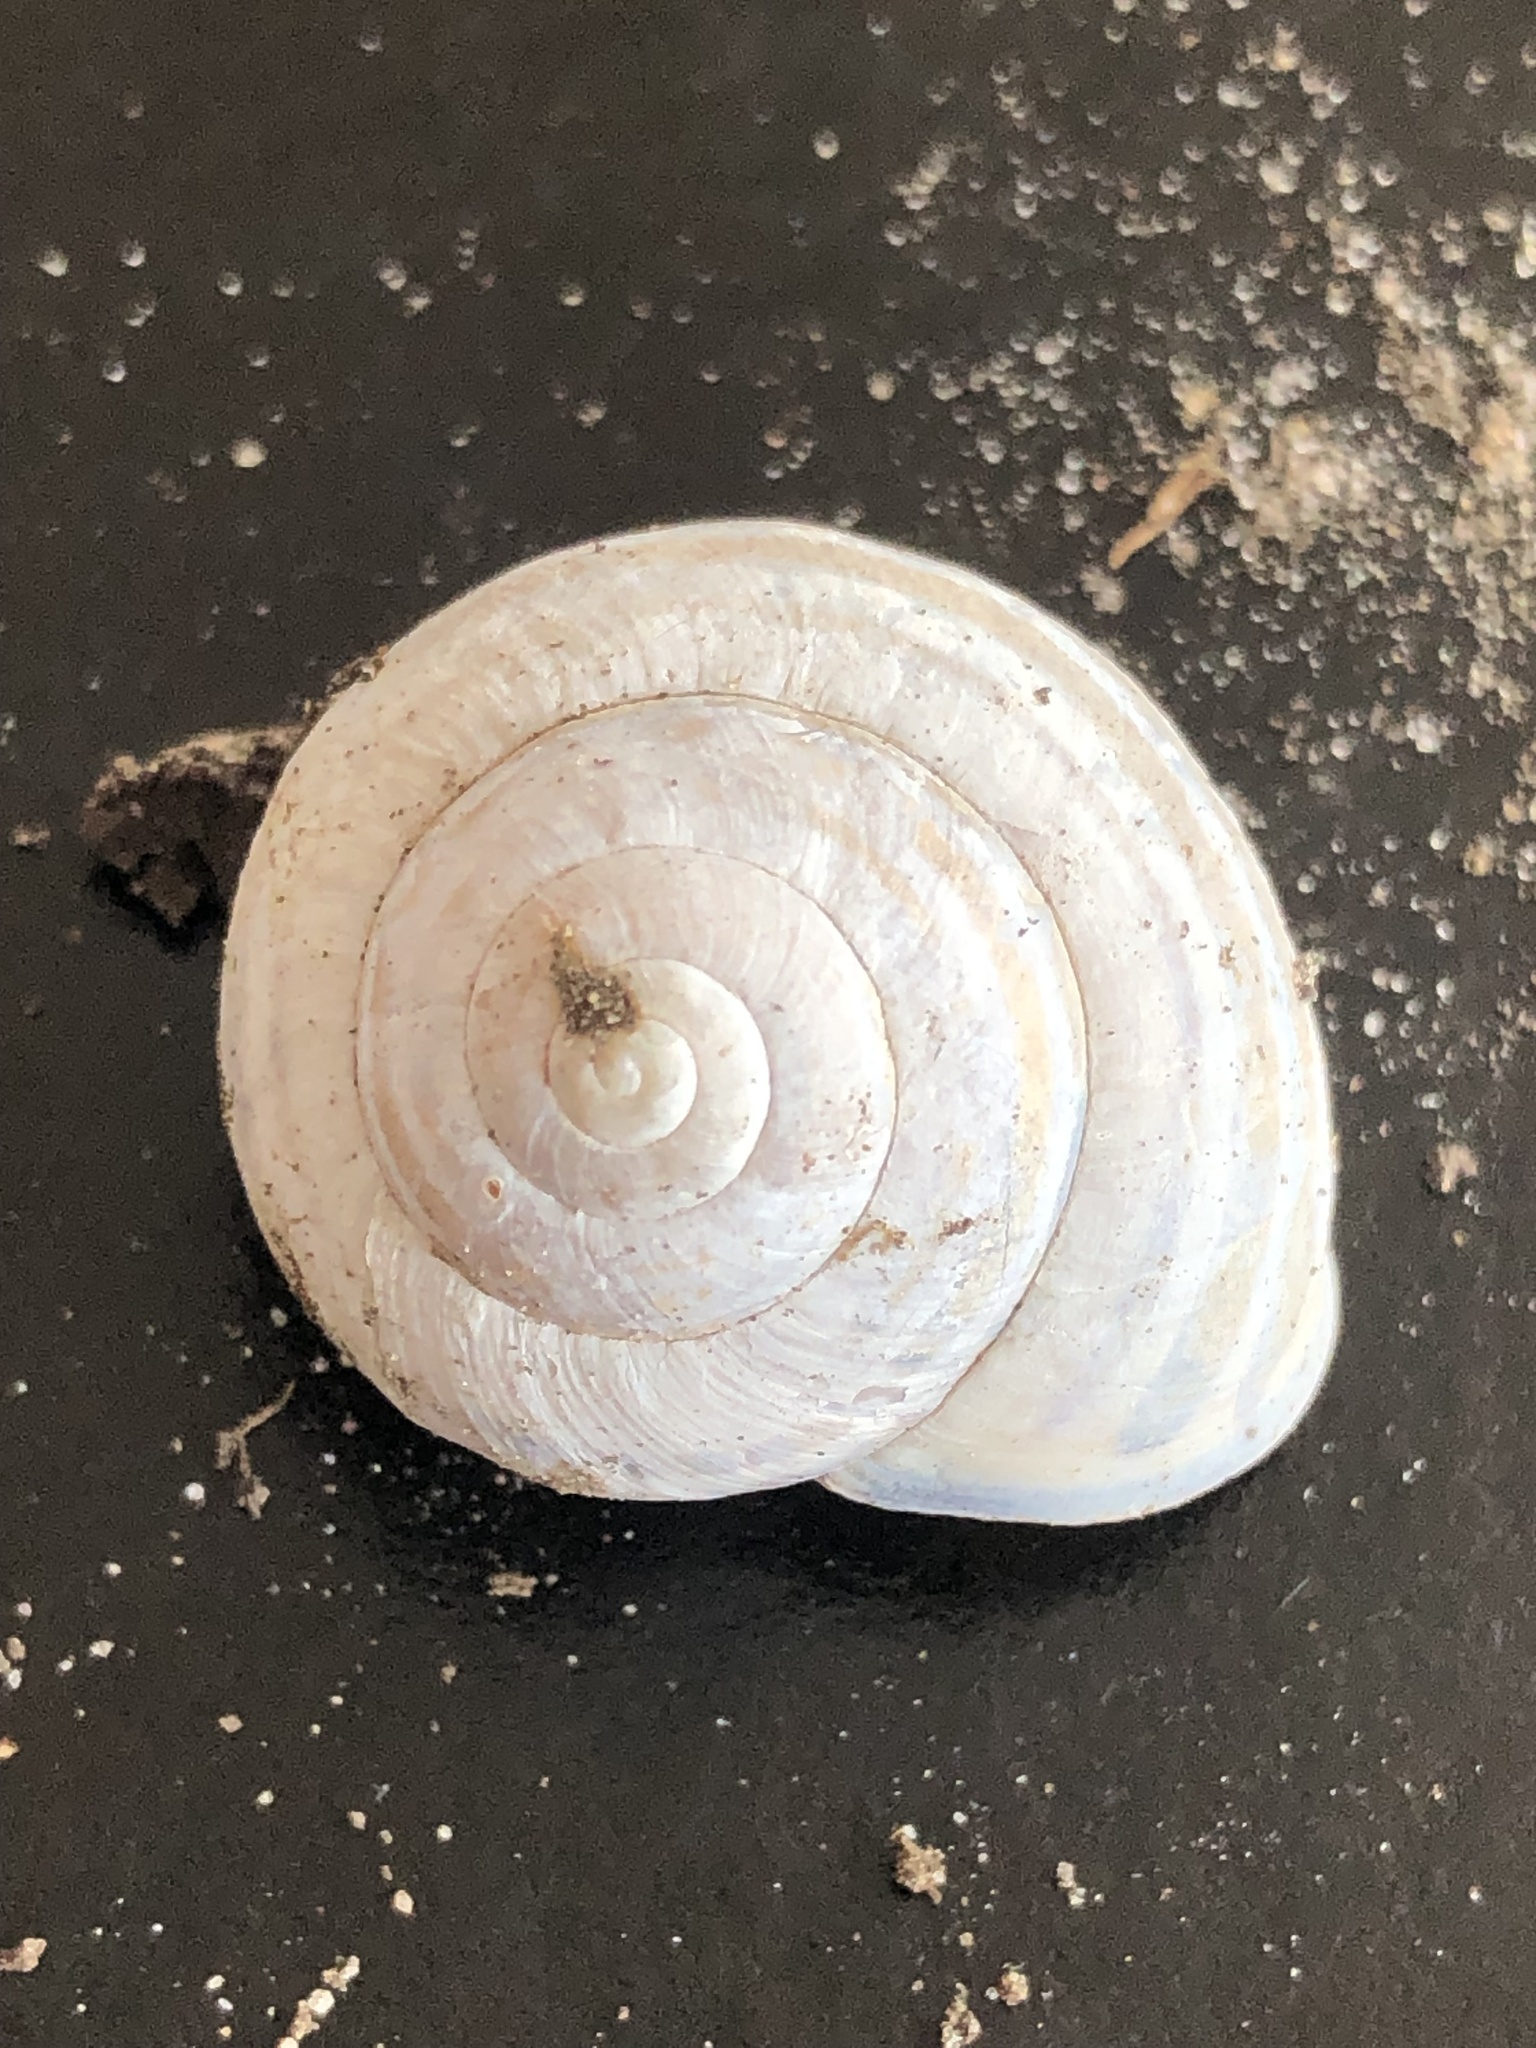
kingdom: Animalia
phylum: Mollusca
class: Gastropoda
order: Stylommatophora
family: Helicidae
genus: Cepaea
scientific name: Cepaea nemoralis
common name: Grovesnail
